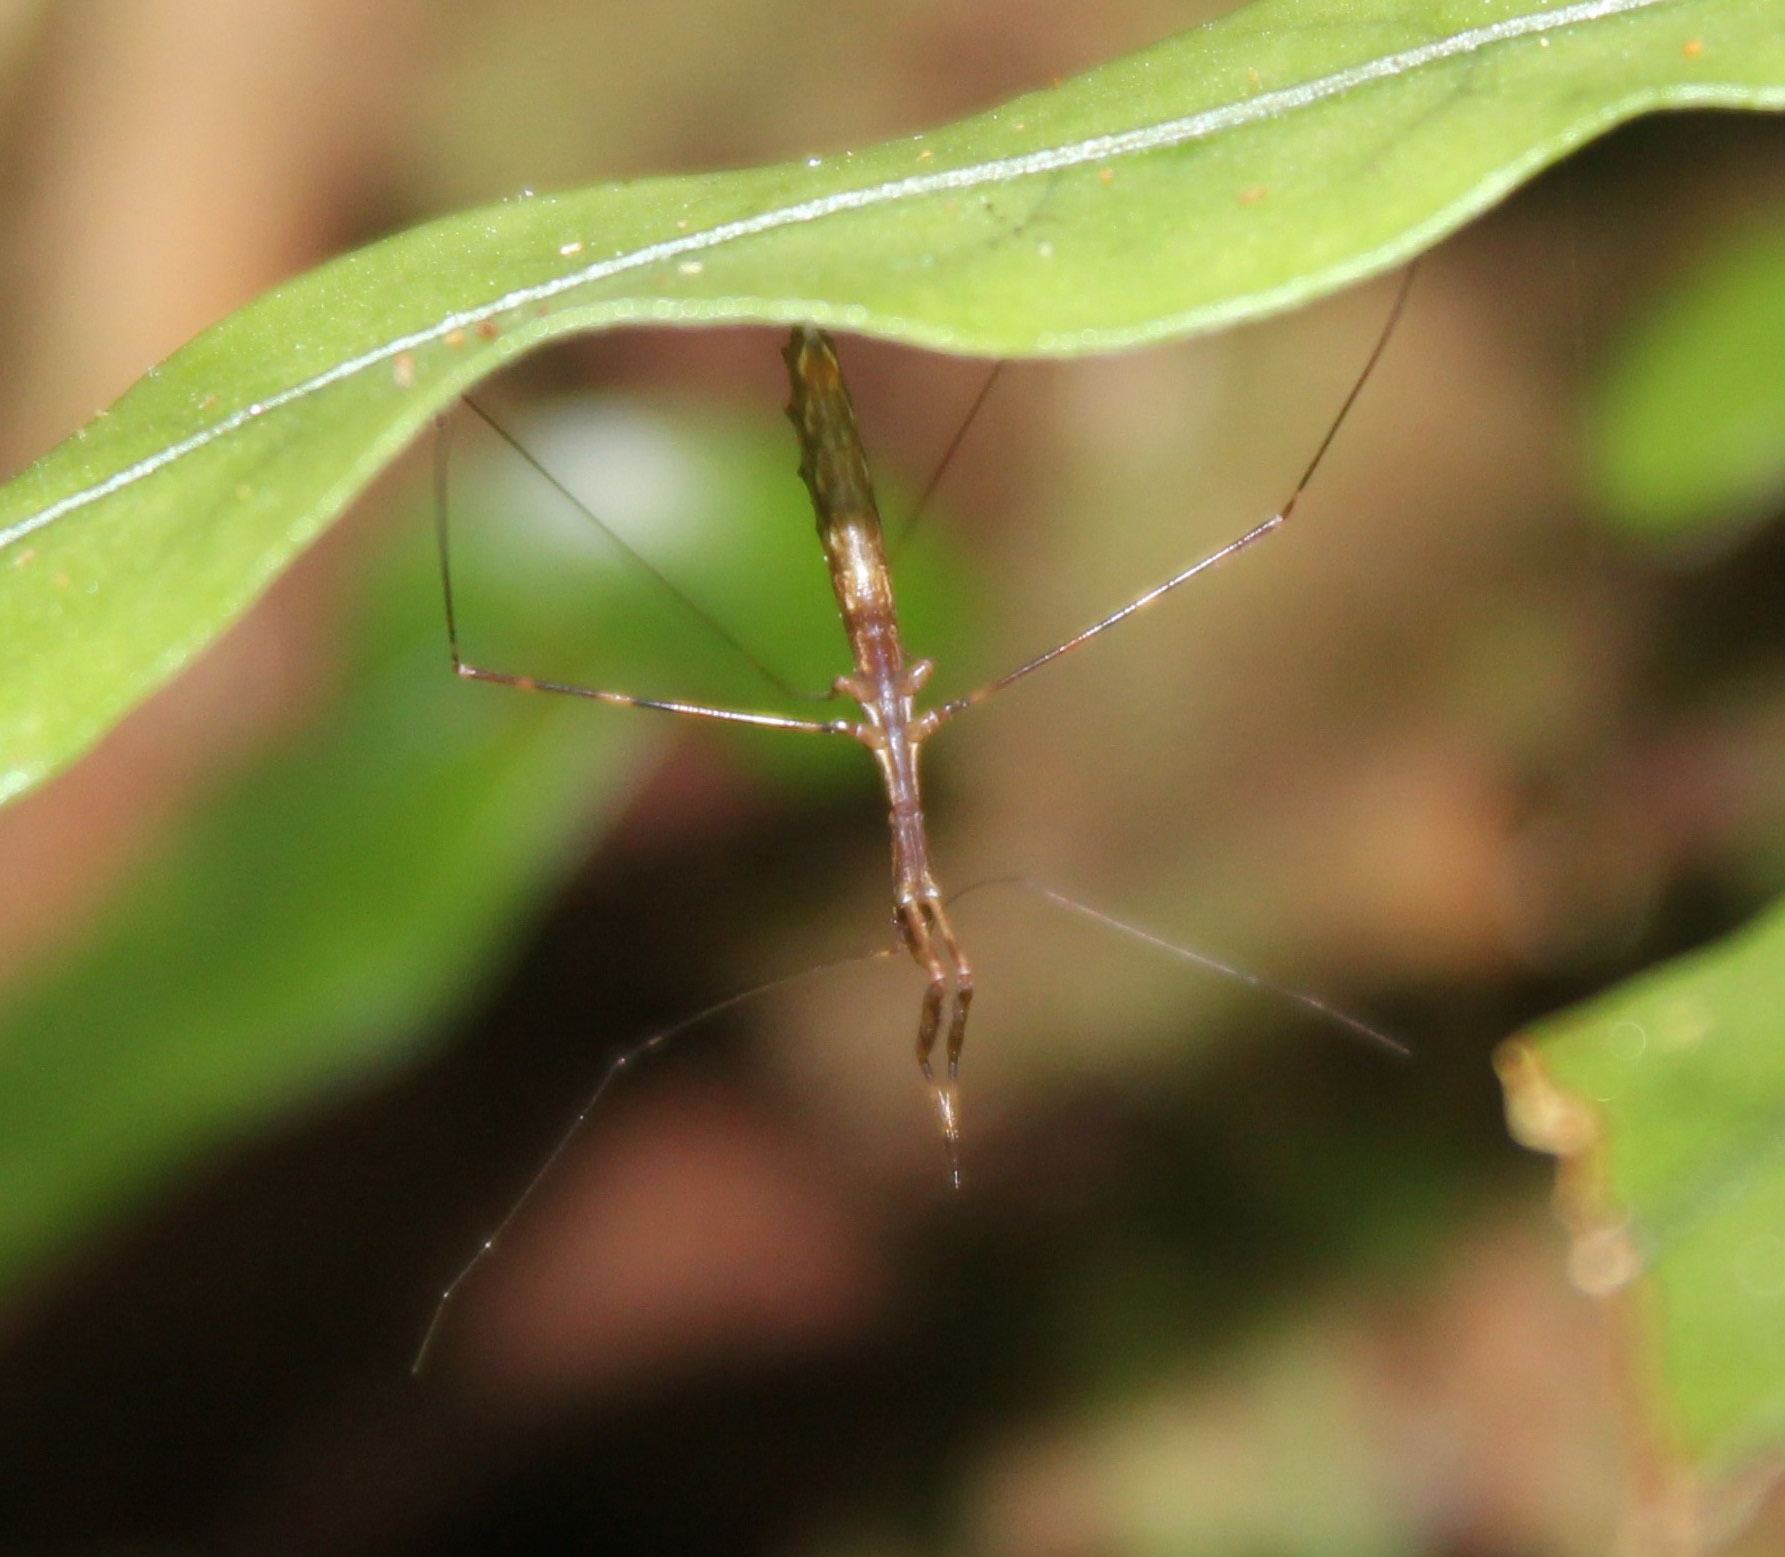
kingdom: Animalia
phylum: Arthropoda
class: Insecta
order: Hemiptera
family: Reduviidae
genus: Ploiaria
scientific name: Ploiaria antipodum
